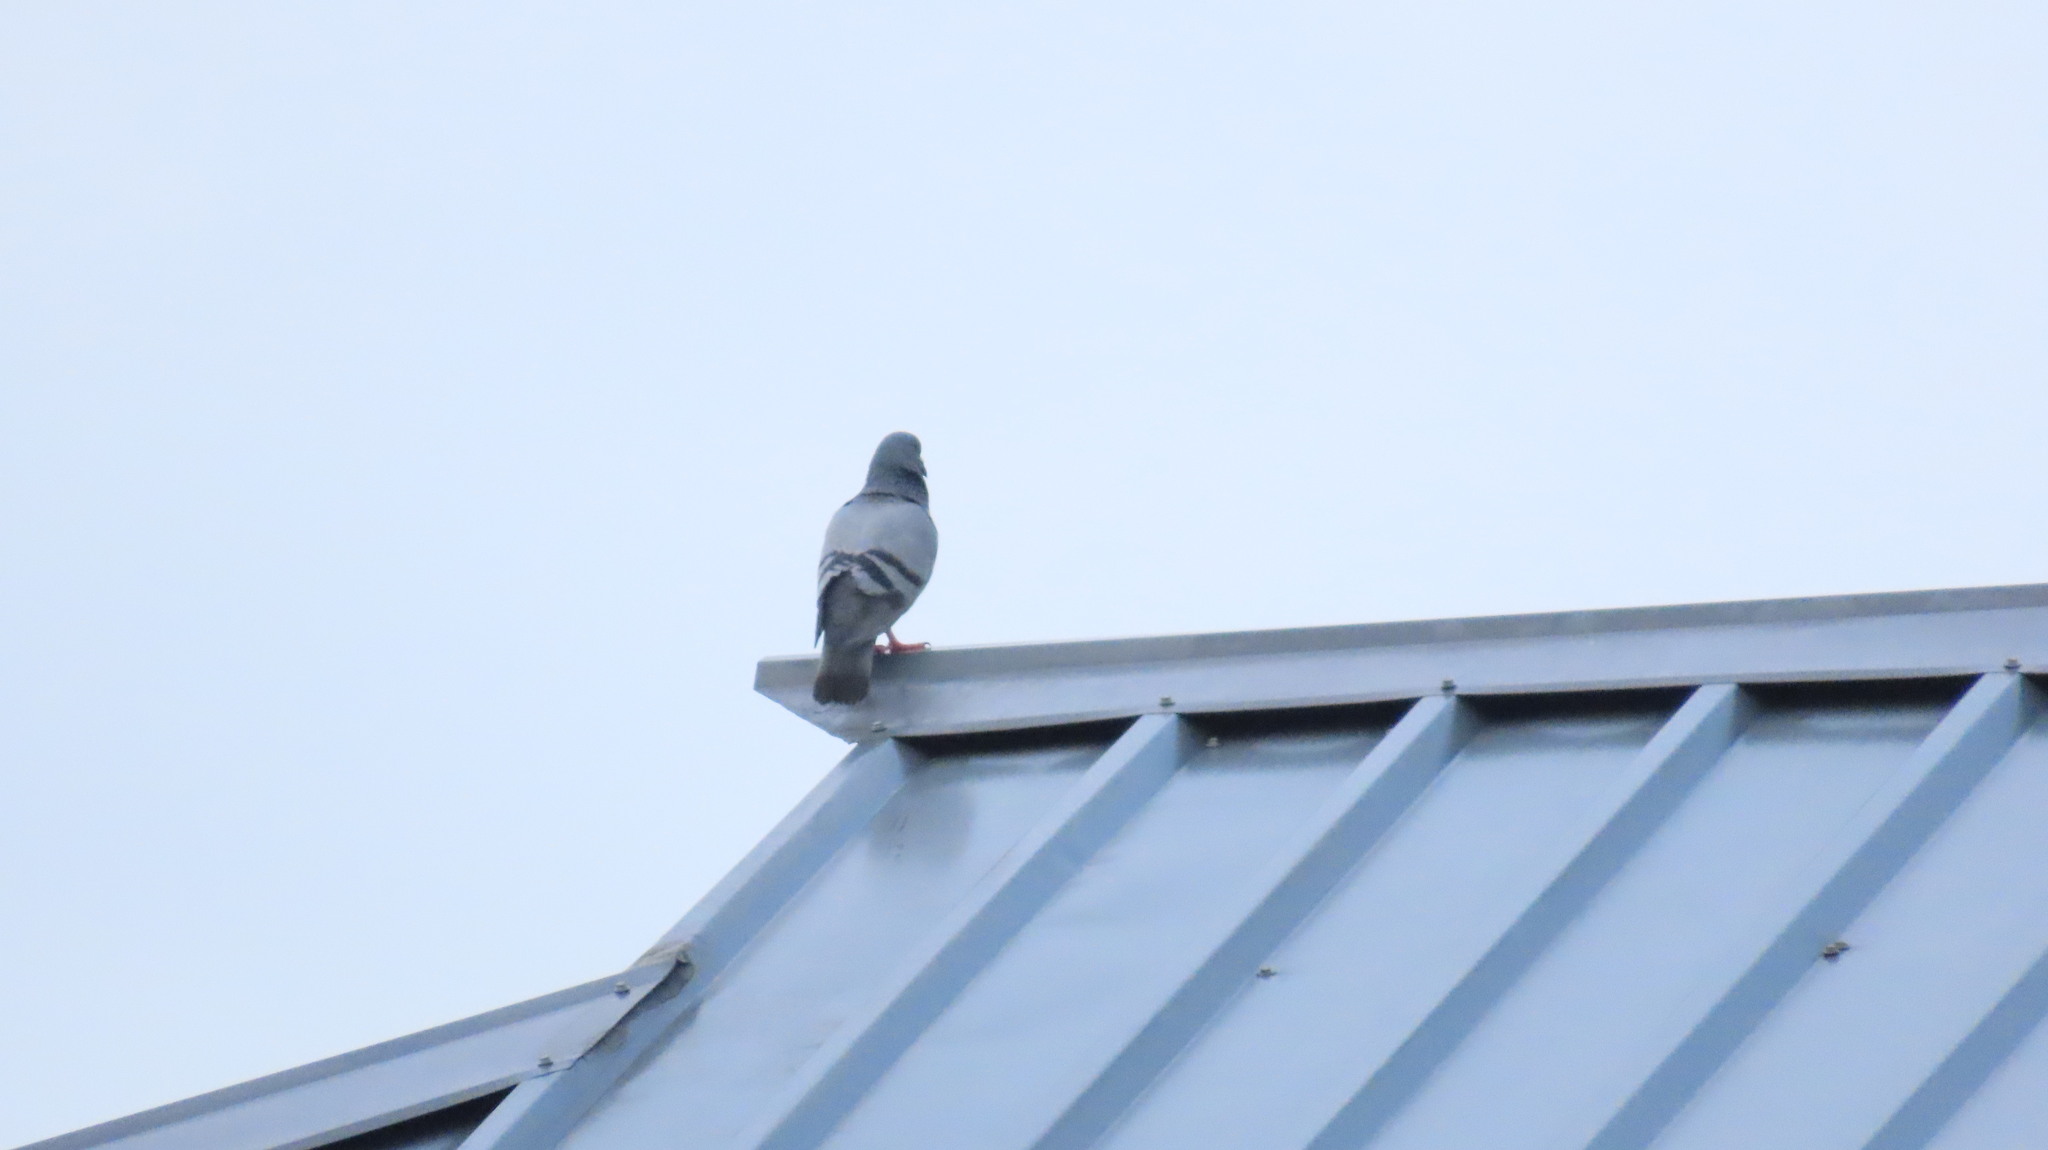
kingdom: Animalia
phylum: Chordata
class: Aves
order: Columbiformes
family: Columbidae
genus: Columba
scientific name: Columba livia
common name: Rock pigeon
